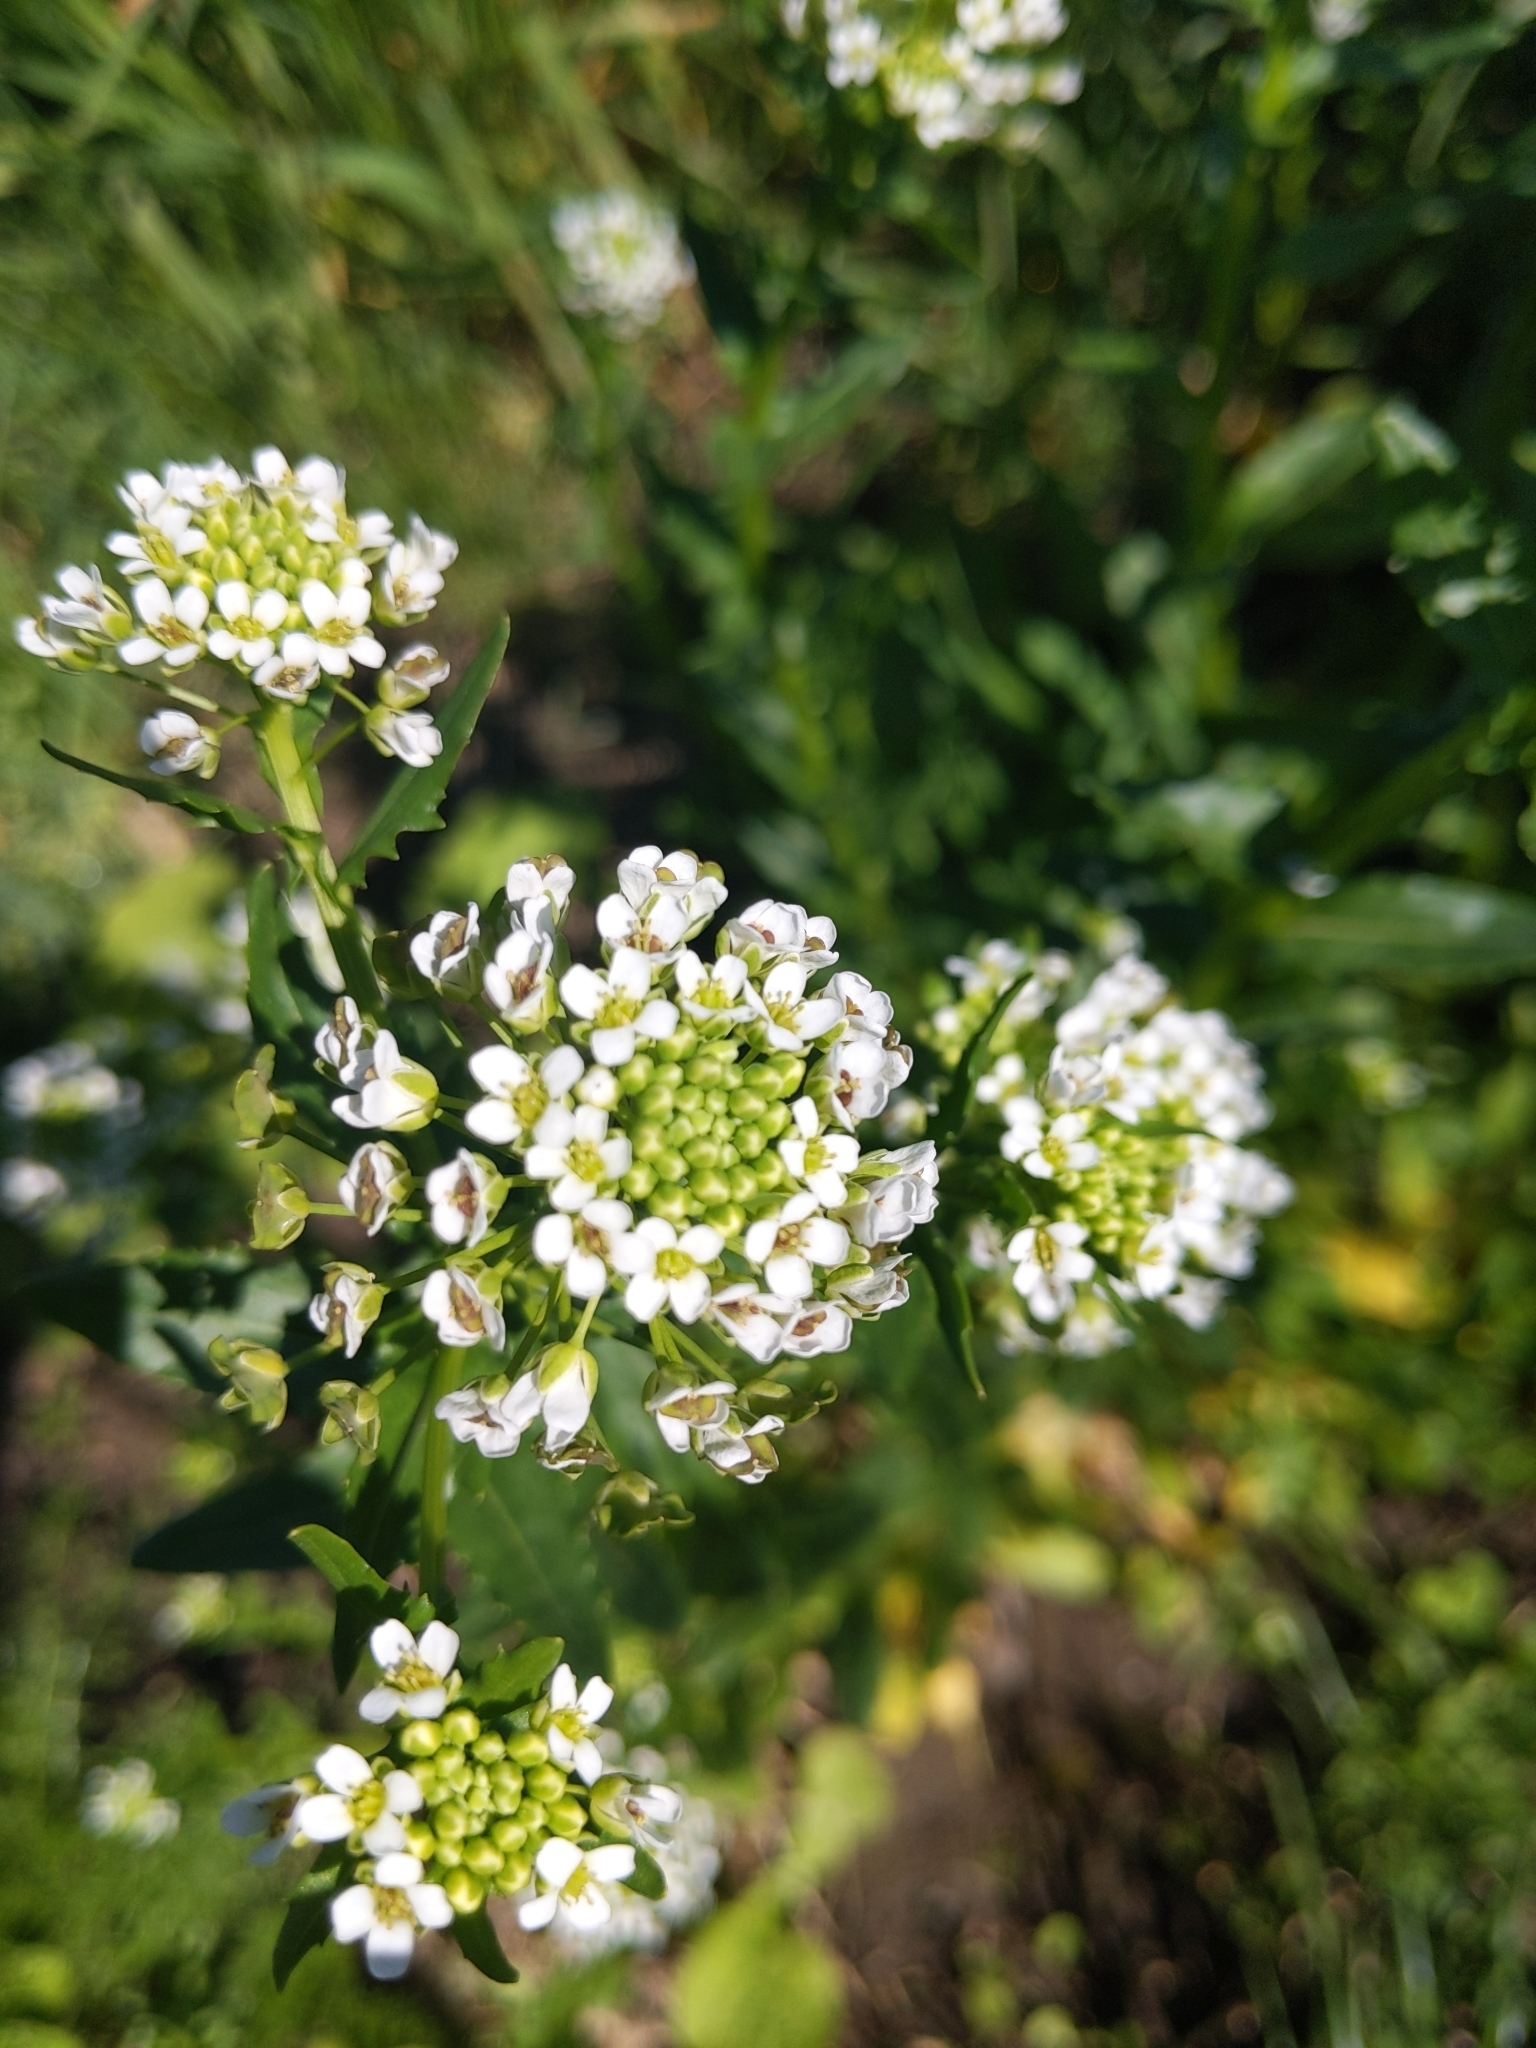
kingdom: Plantae
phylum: Tracheophyta
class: Magnoliopsida
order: Brassicales
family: Brassicaceae
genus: Thlaspi
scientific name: Thlaspi arvense
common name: Field pennycress
